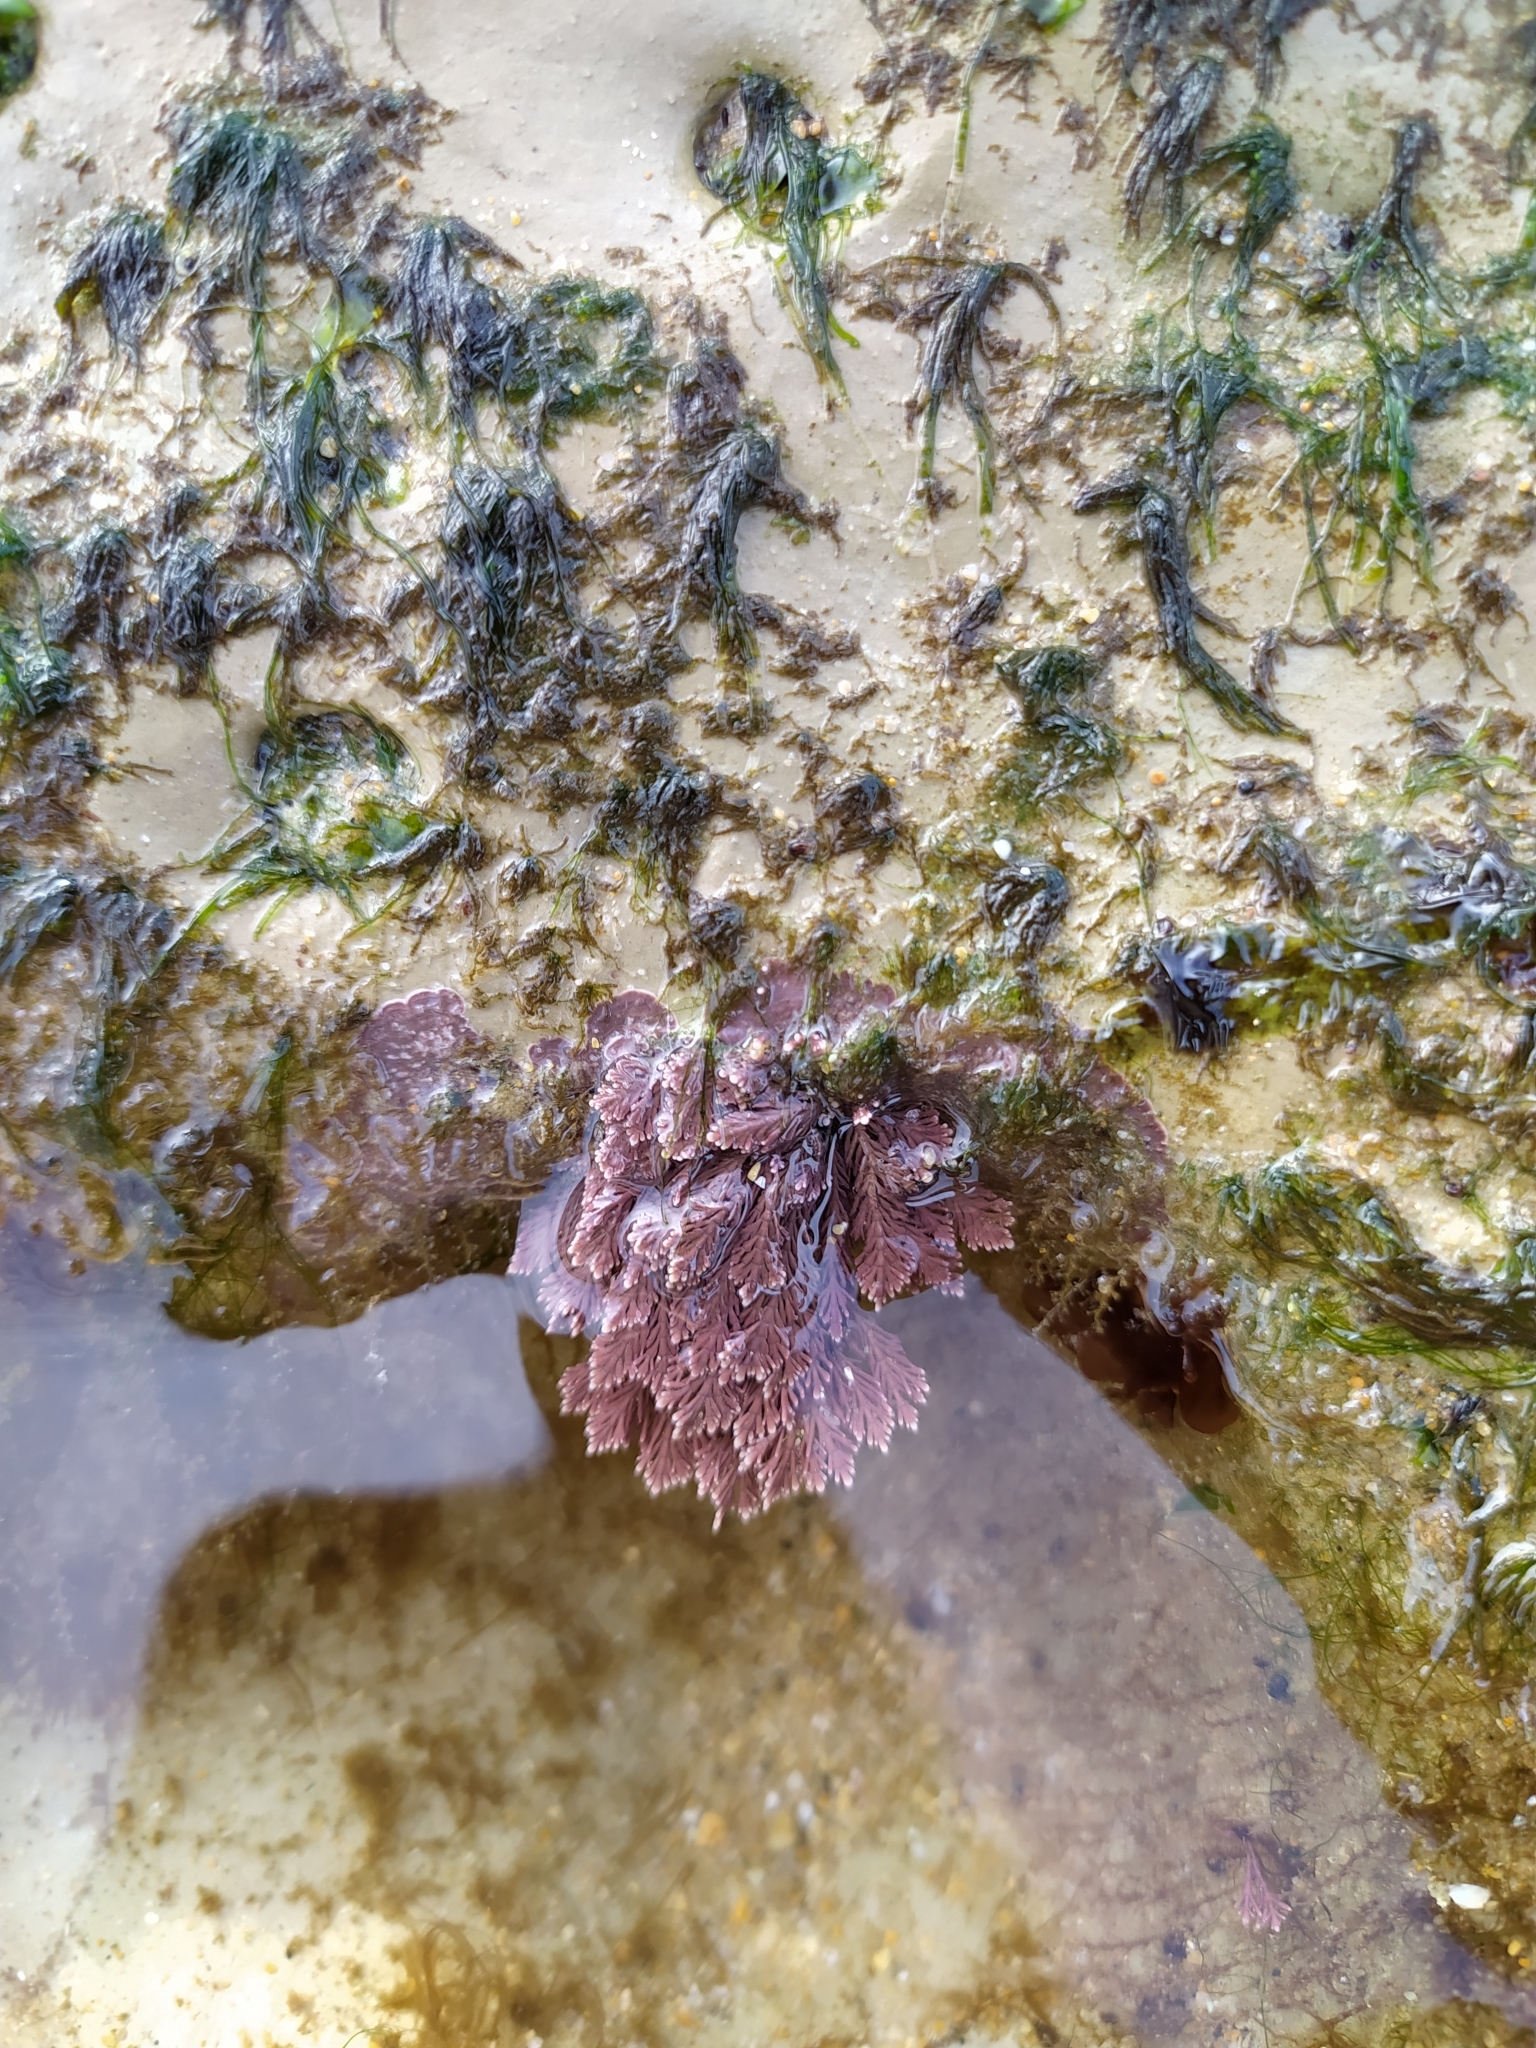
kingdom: Plantae
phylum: Rhodophyta
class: Florideophyceae
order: Corallinales
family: Corallinaceae
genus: Ellisolandia
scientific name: Ellisolandia elongata
